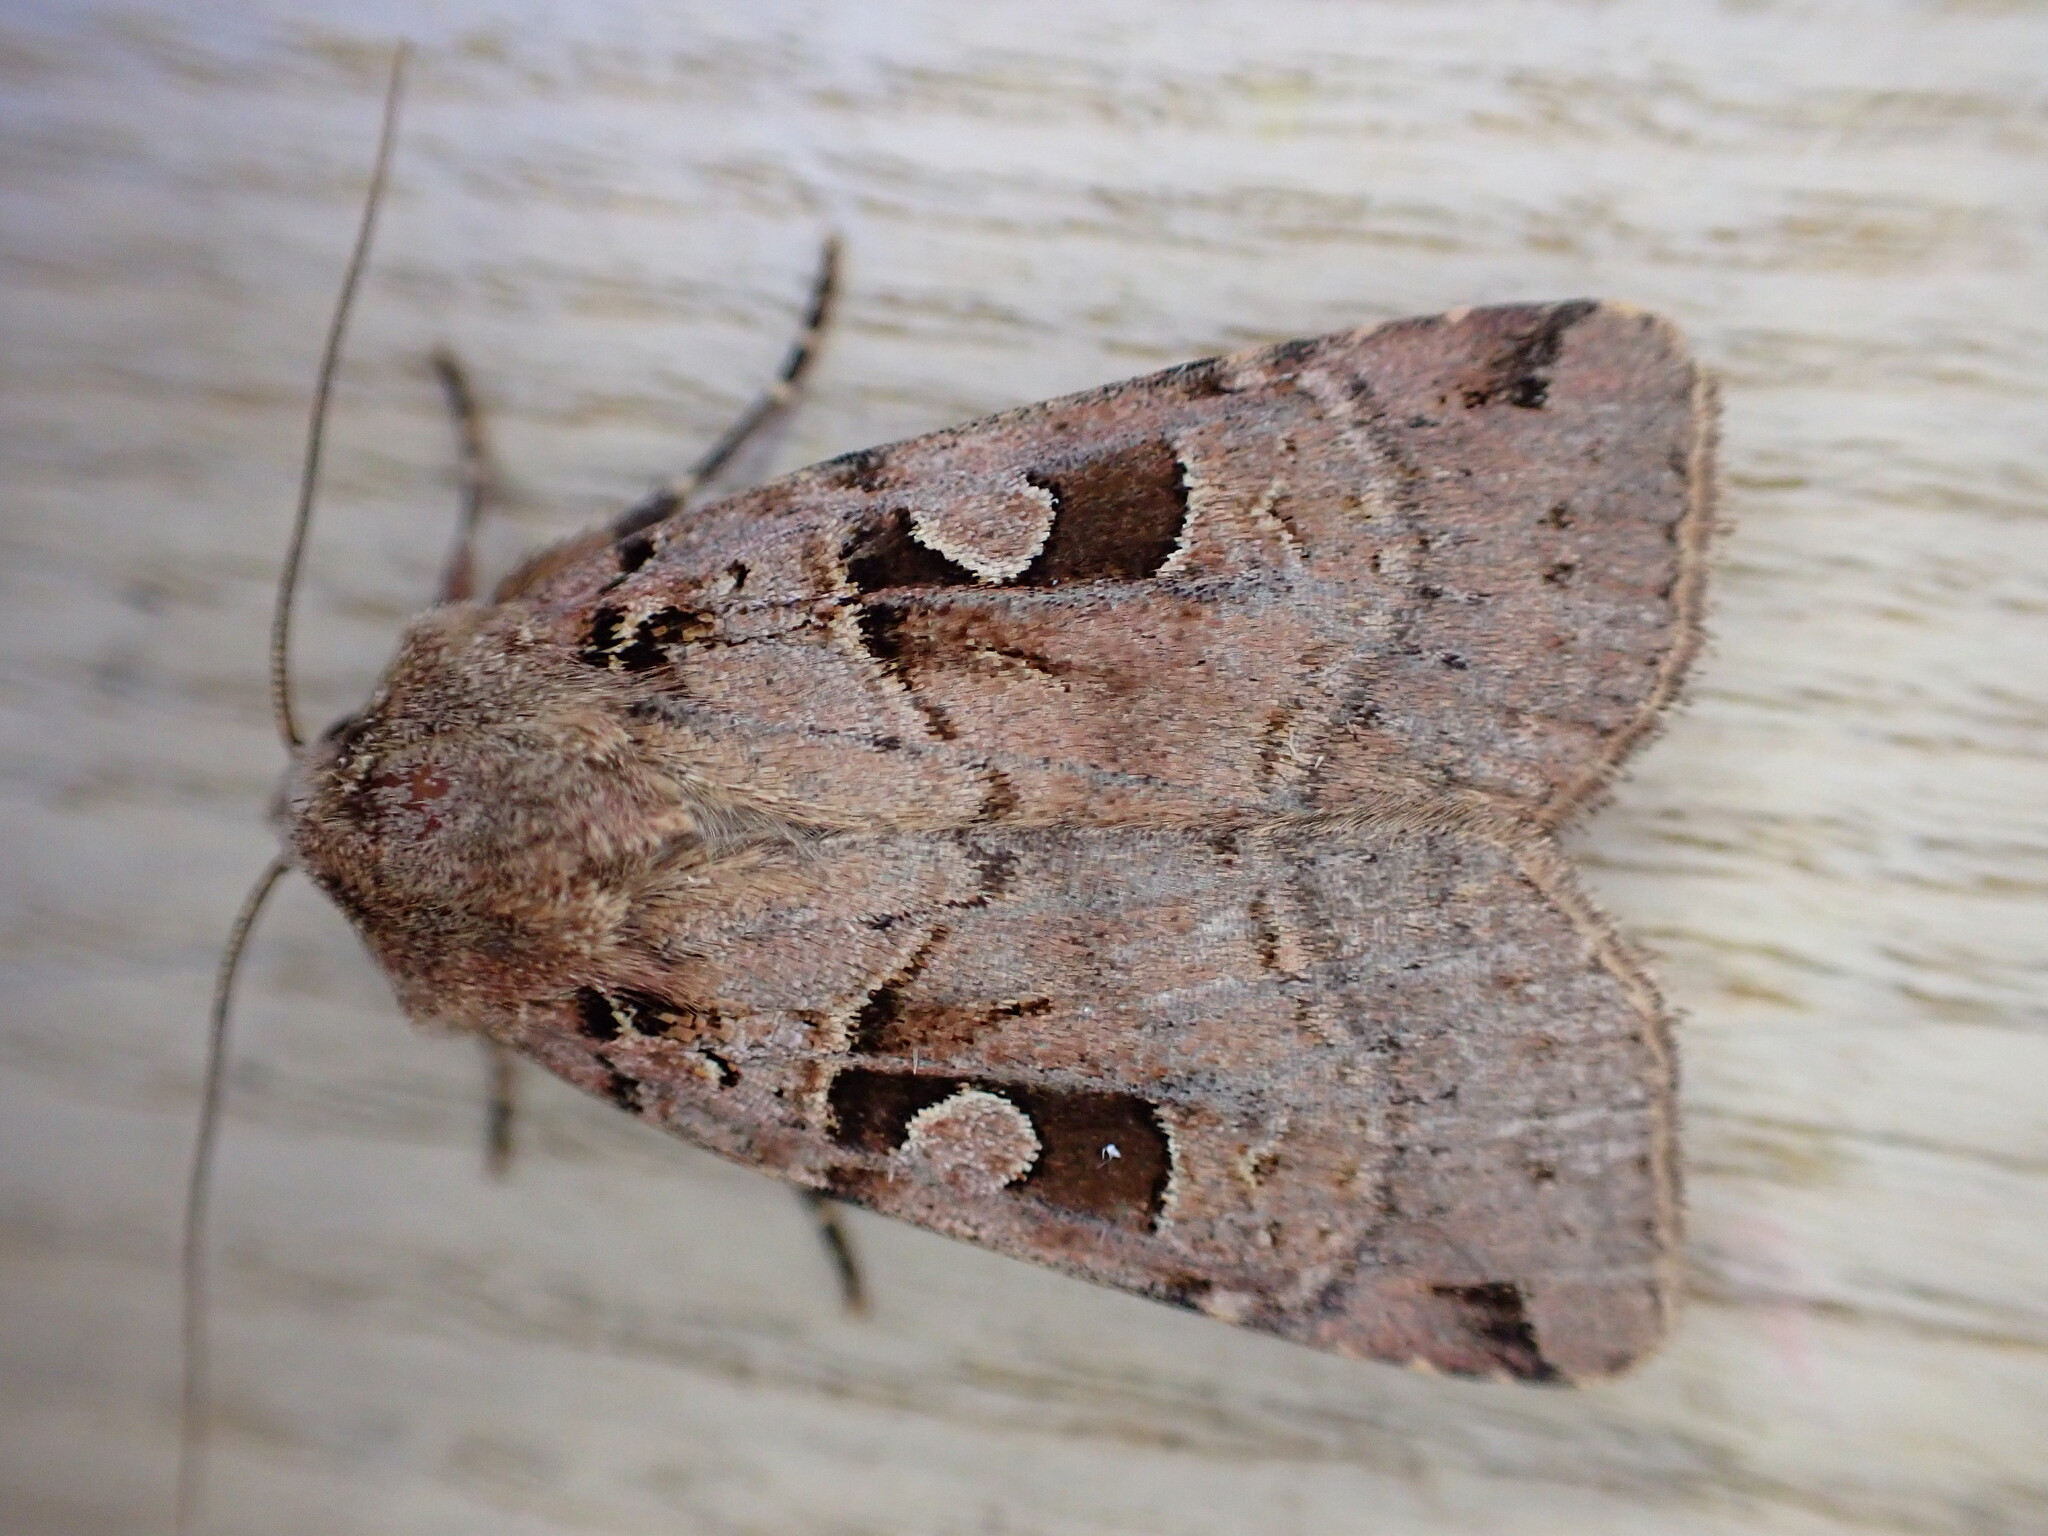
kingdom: Animalia
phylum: Arthropoda
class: Insecta
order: Lepidoptera
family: Noctuidae
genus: Xestia
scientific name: Xestia triangulum
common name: Double square-spot
